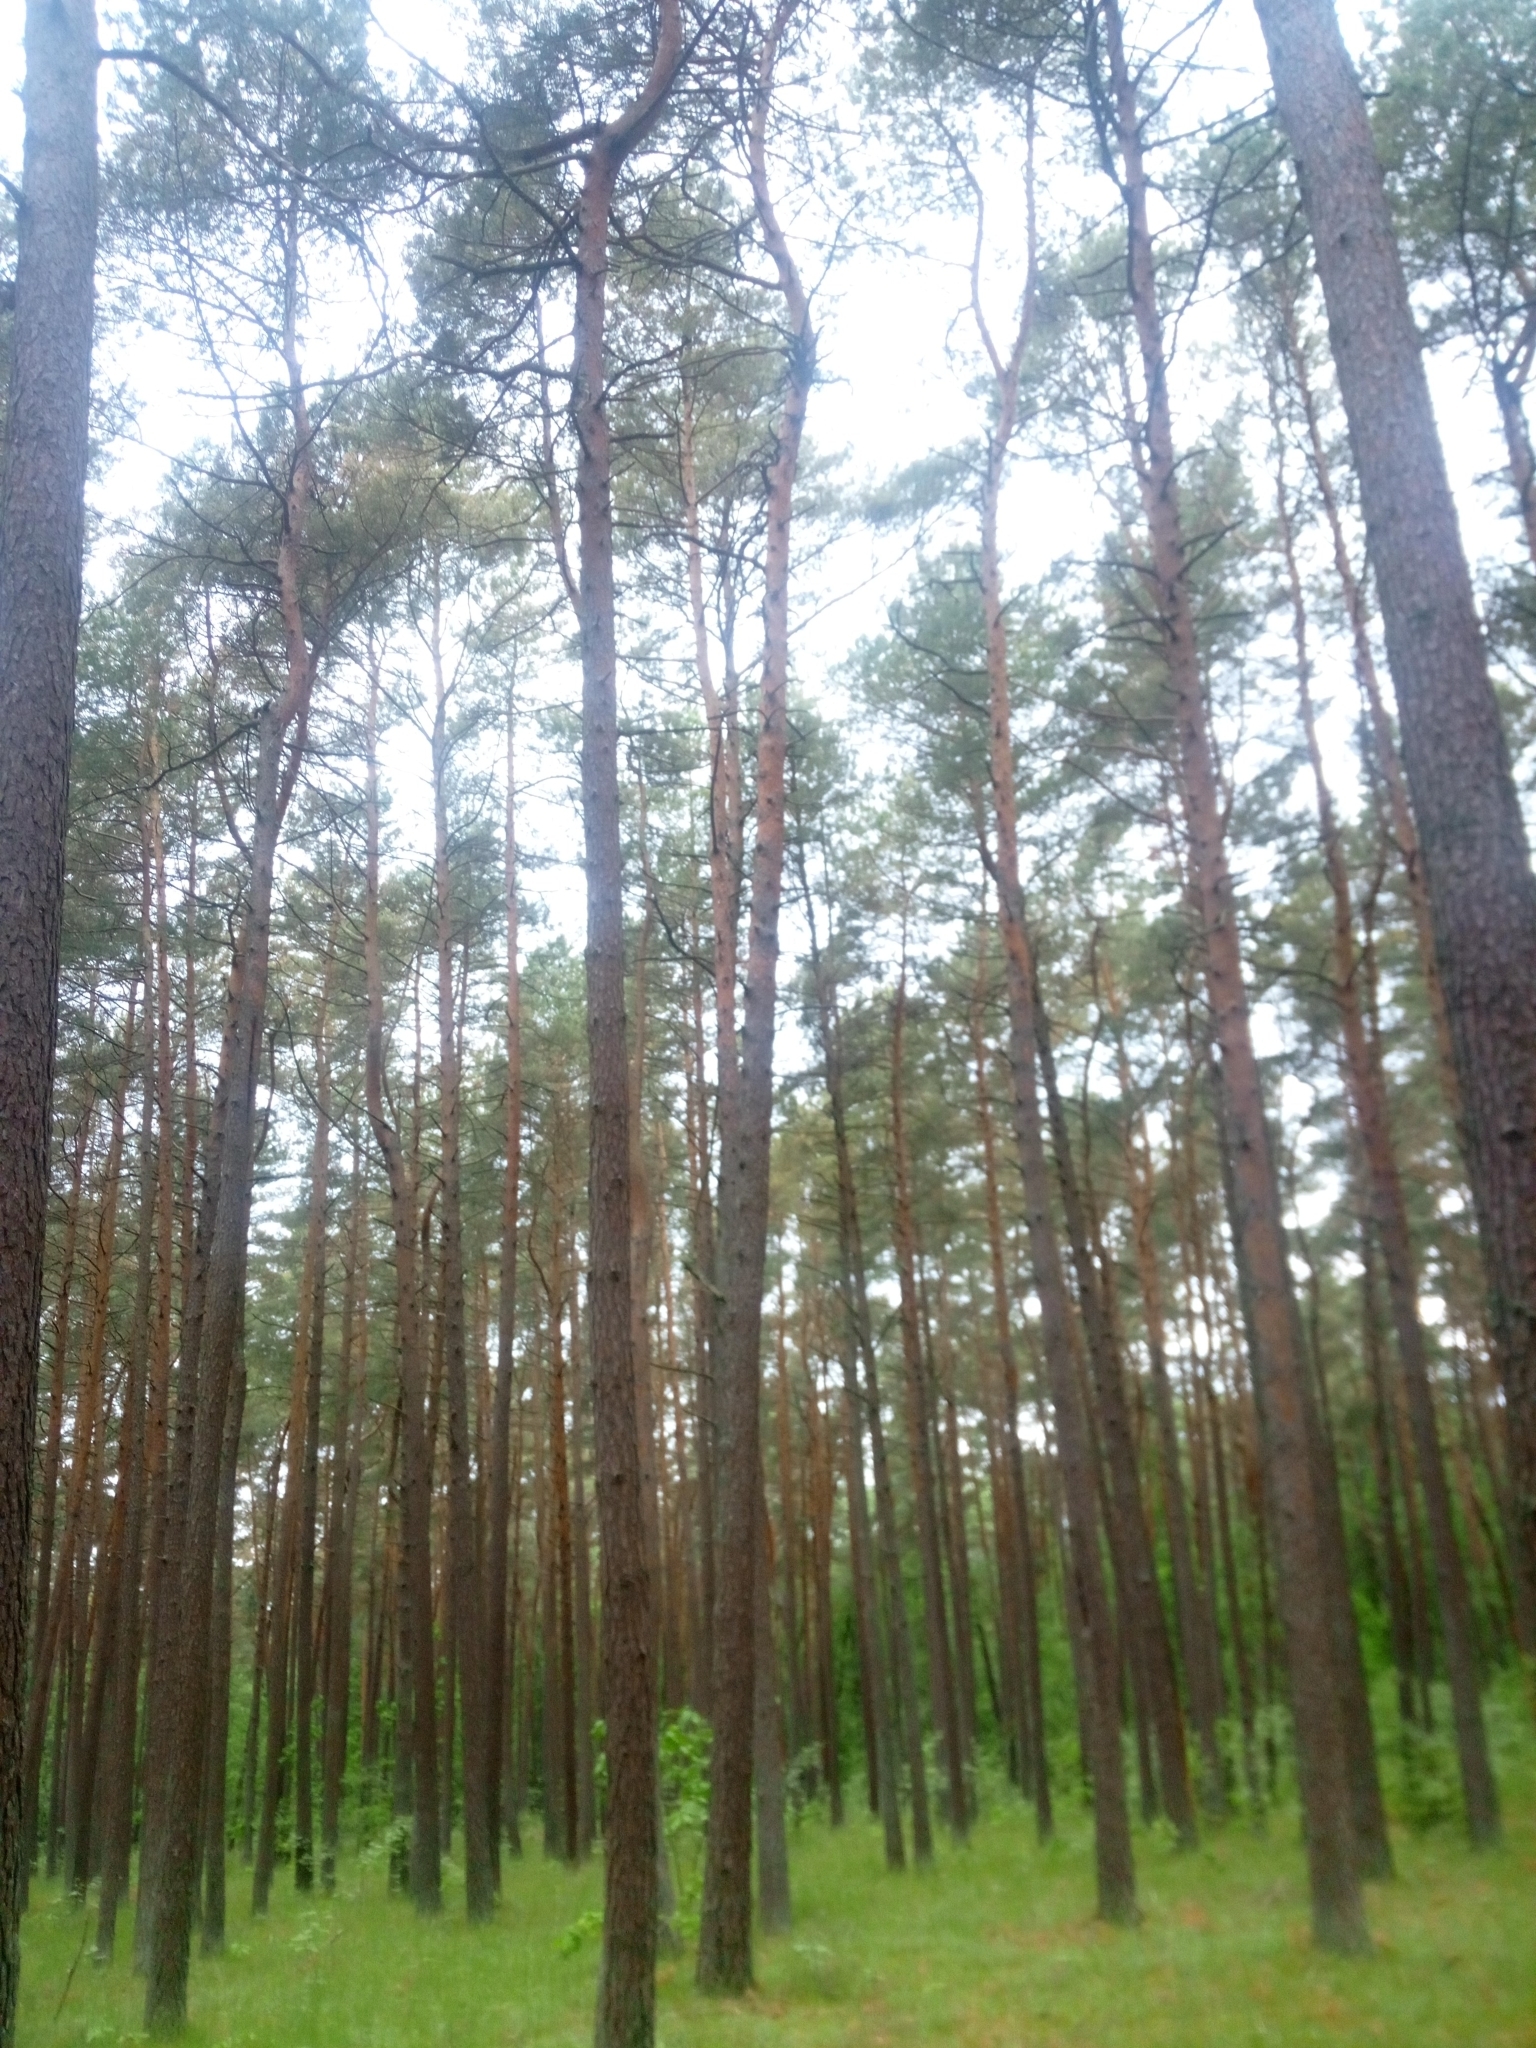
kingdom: Plantae
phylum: Tracheophyta
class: Pinopsida
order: Pinales
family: Pinaceae
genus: Pinus
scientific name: Pinus sylvestris
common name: Scots pine
